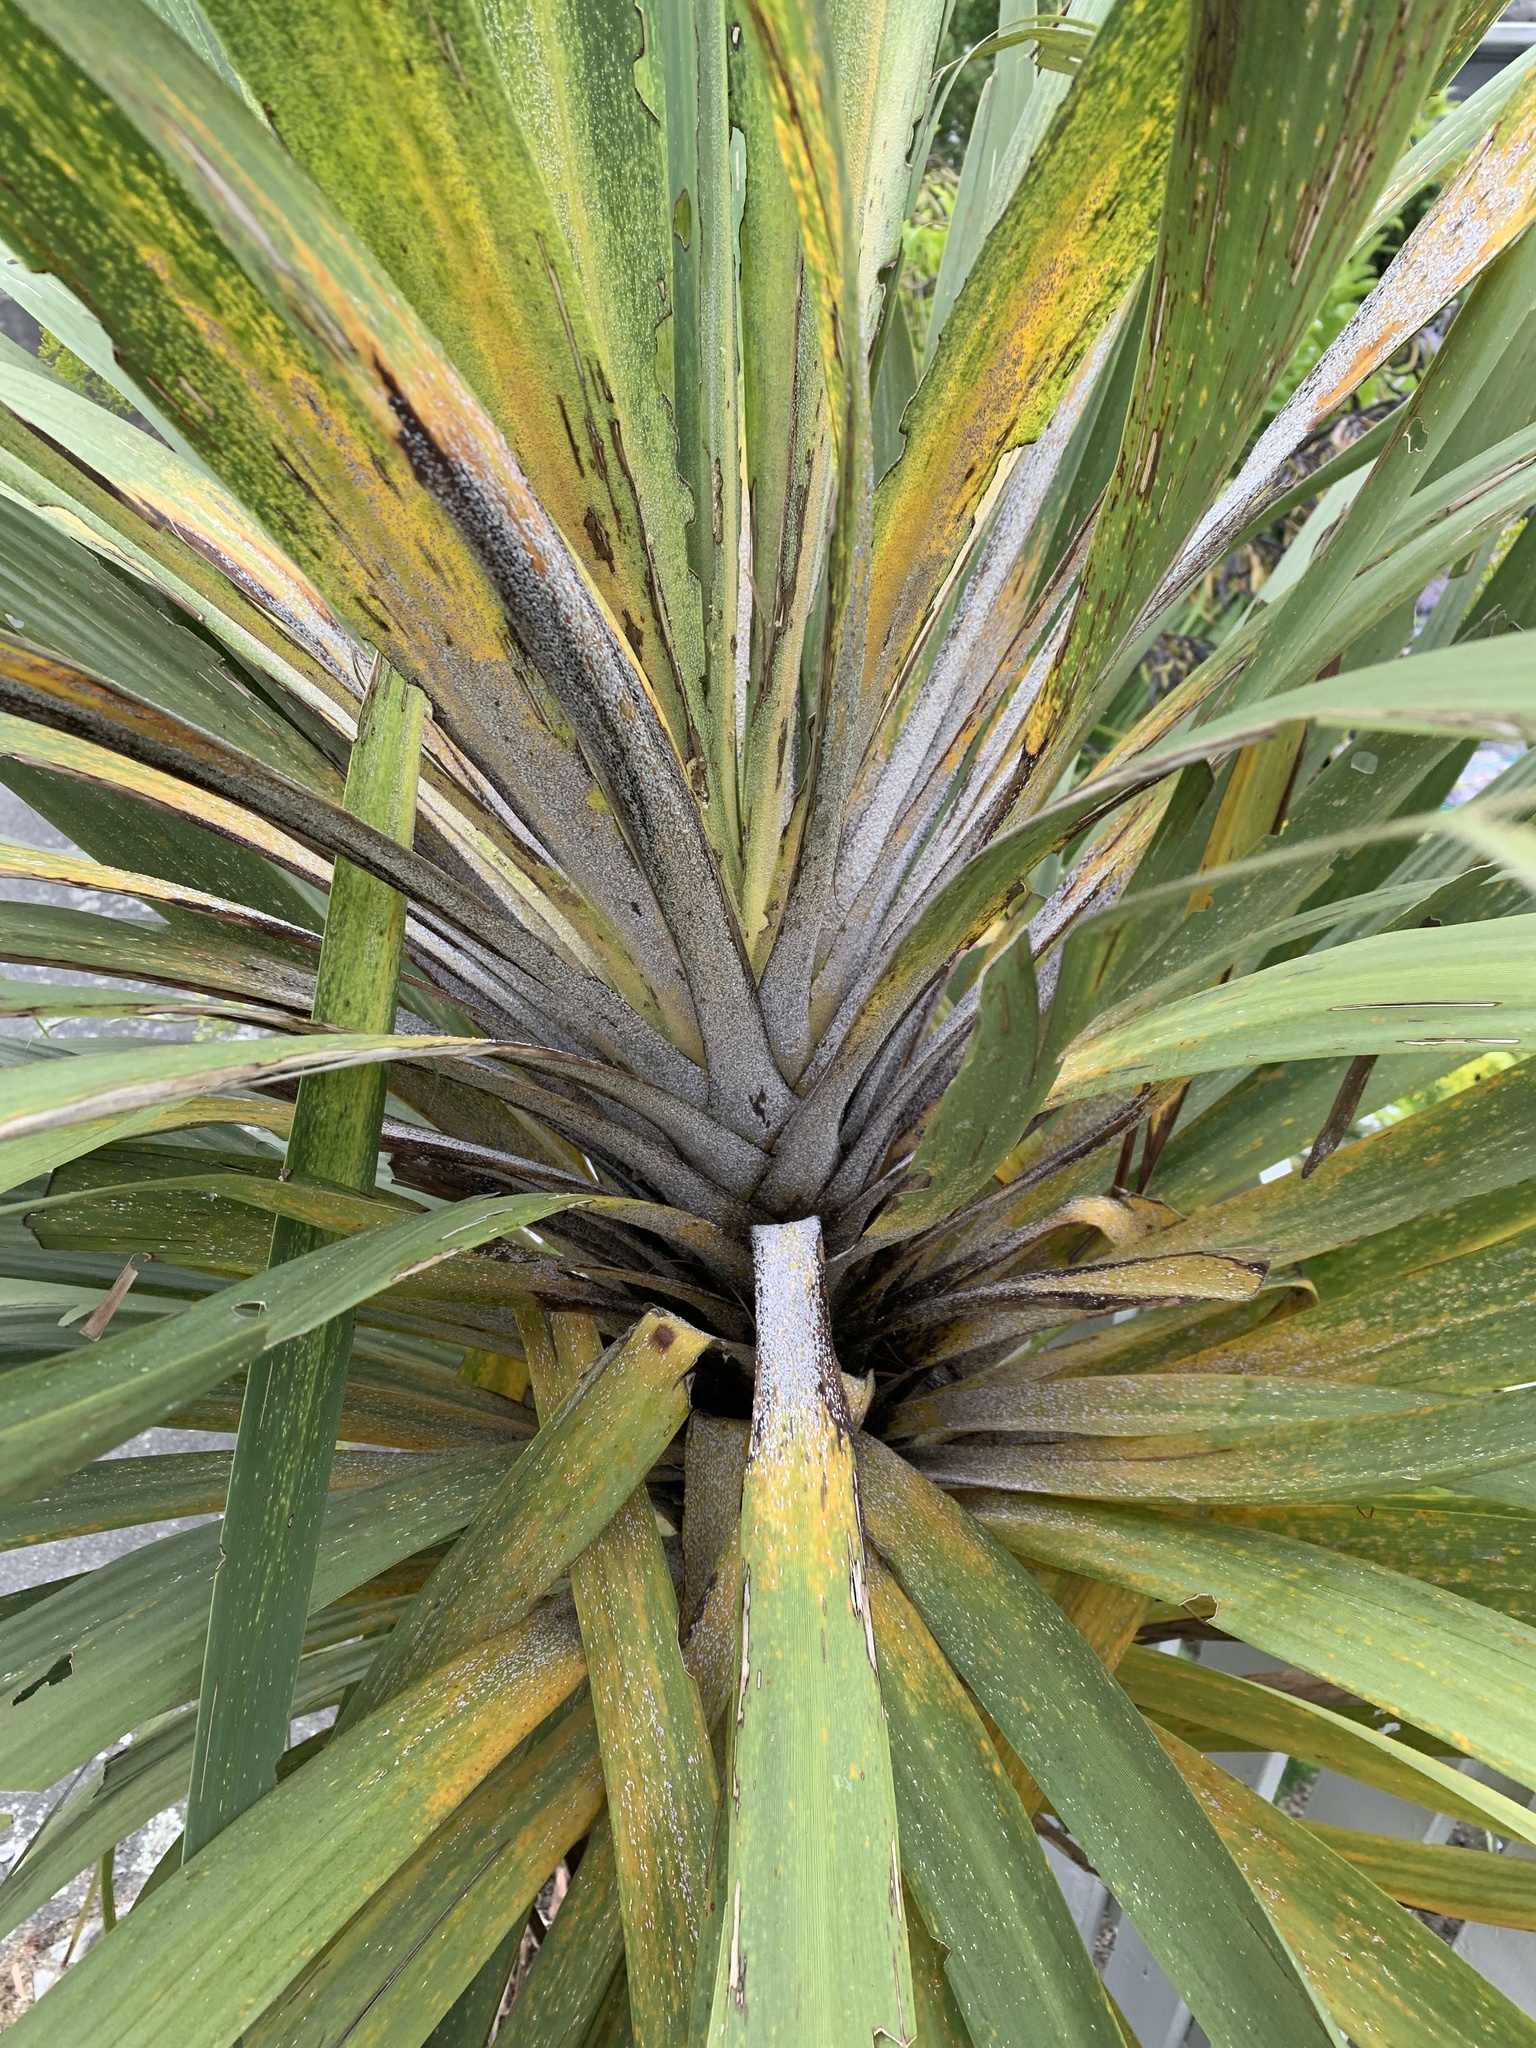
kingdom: Animalia
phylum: Arthropoda
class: Insecta
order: Hemiptera
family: Diaspididae
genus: Leucaspis
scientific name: Leucaspis cordylinidis
